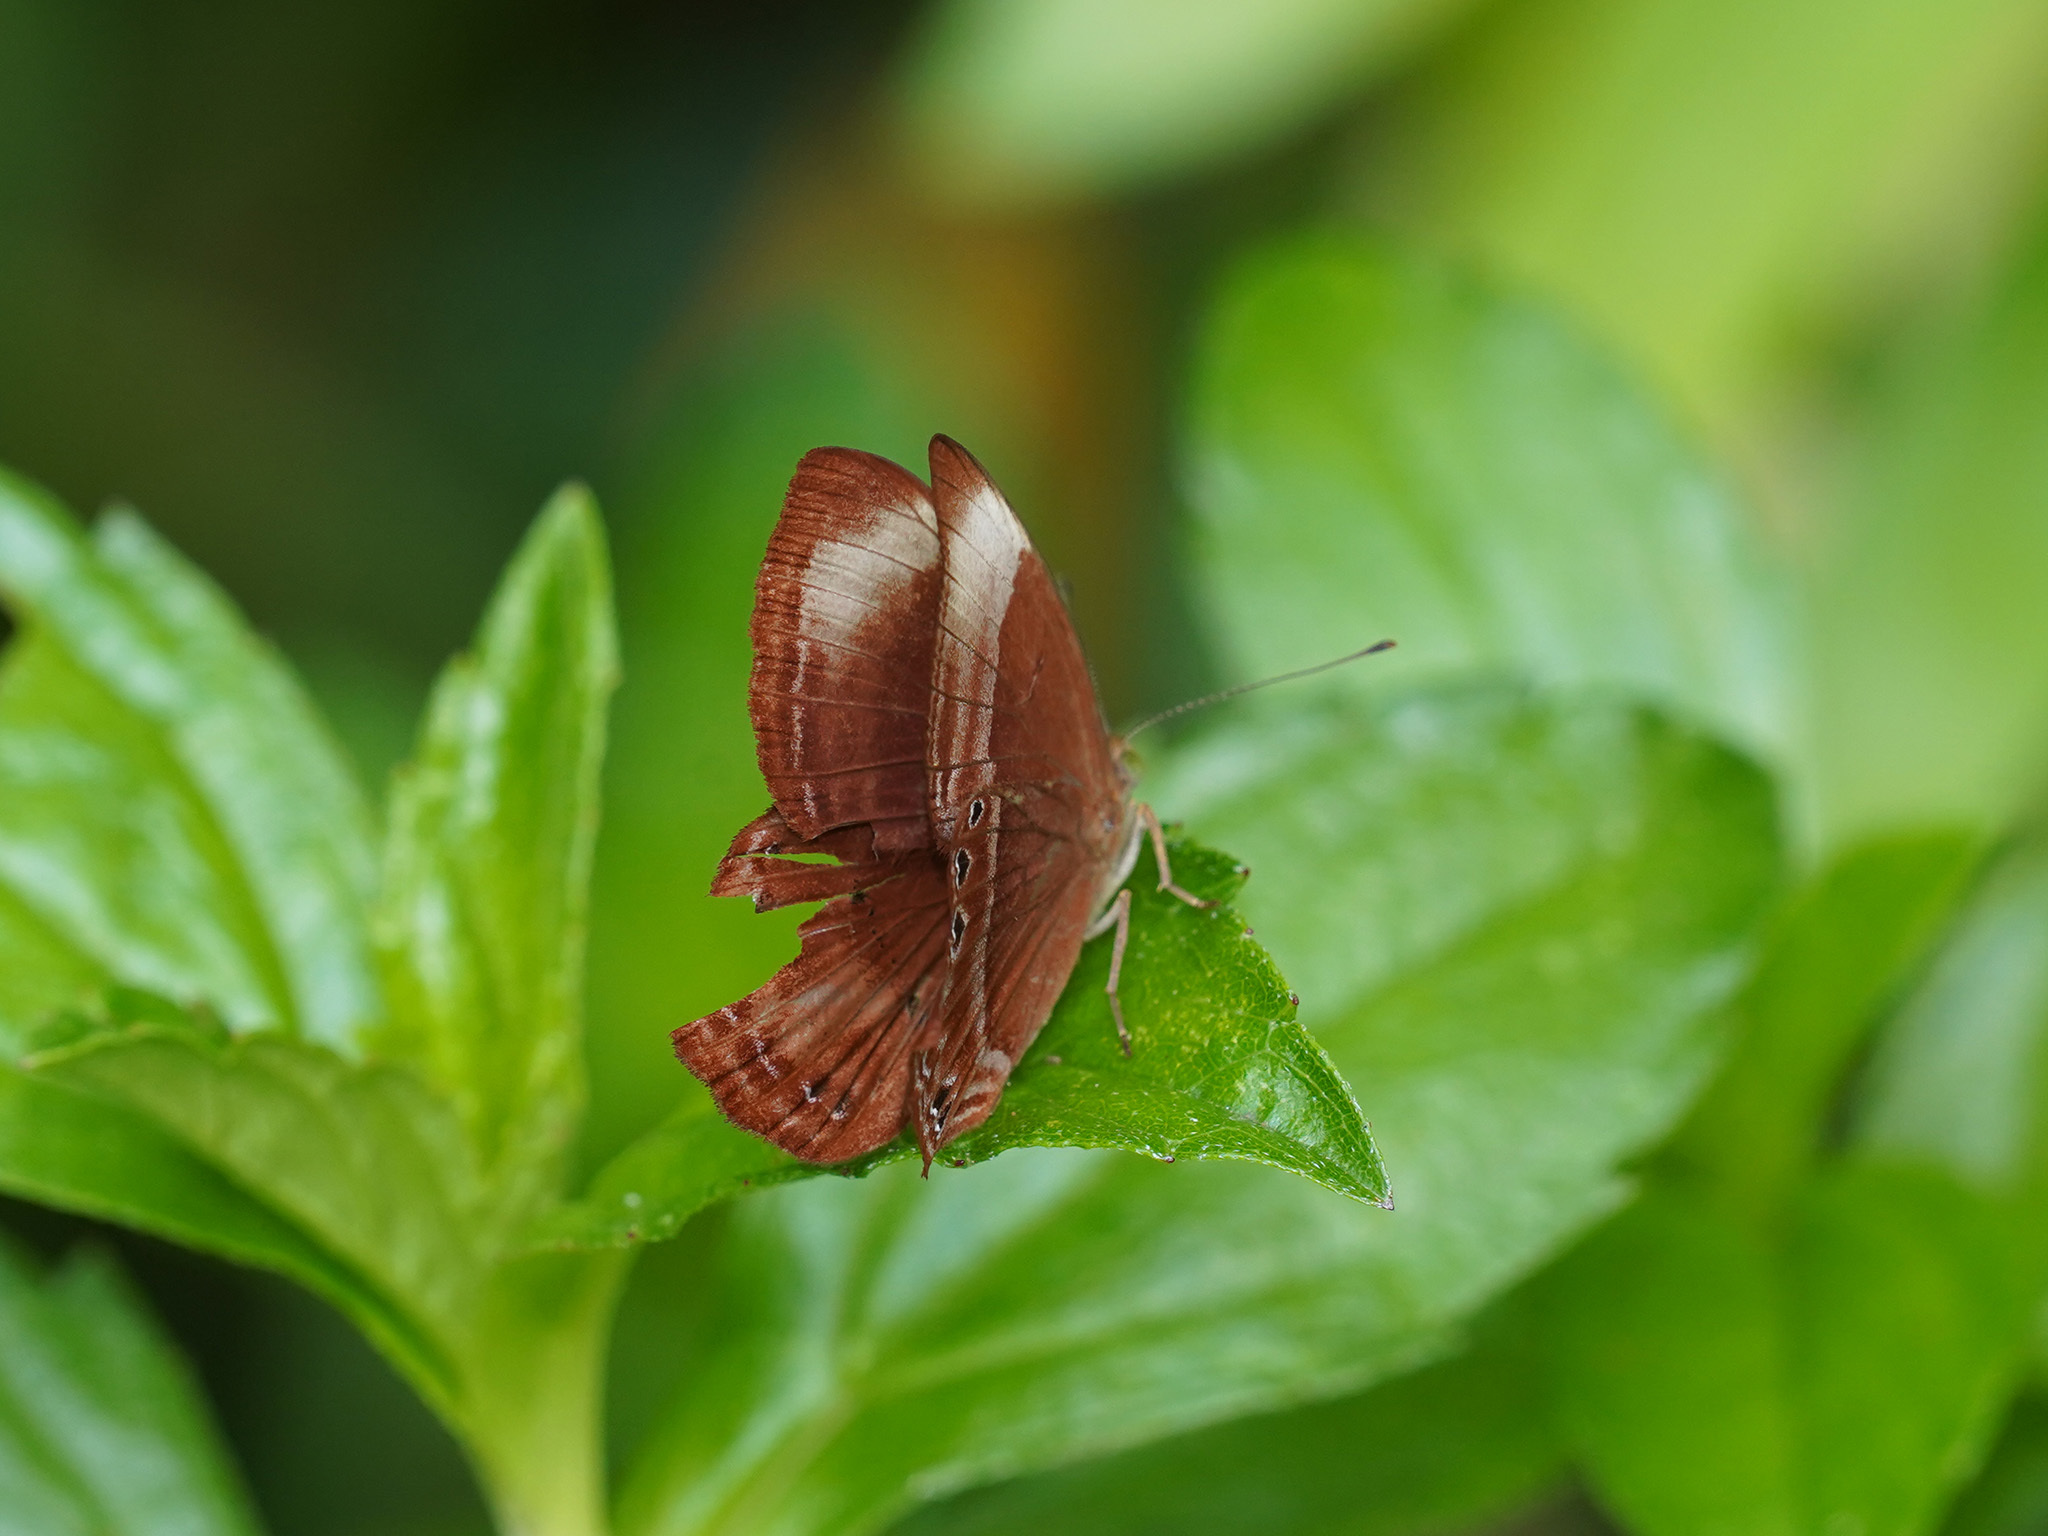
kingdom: Animalia
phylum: Arthropoda
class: Insecta
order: Lepidoptera
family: Lycaenidae
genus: Abisara
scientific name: Abisara saturata
